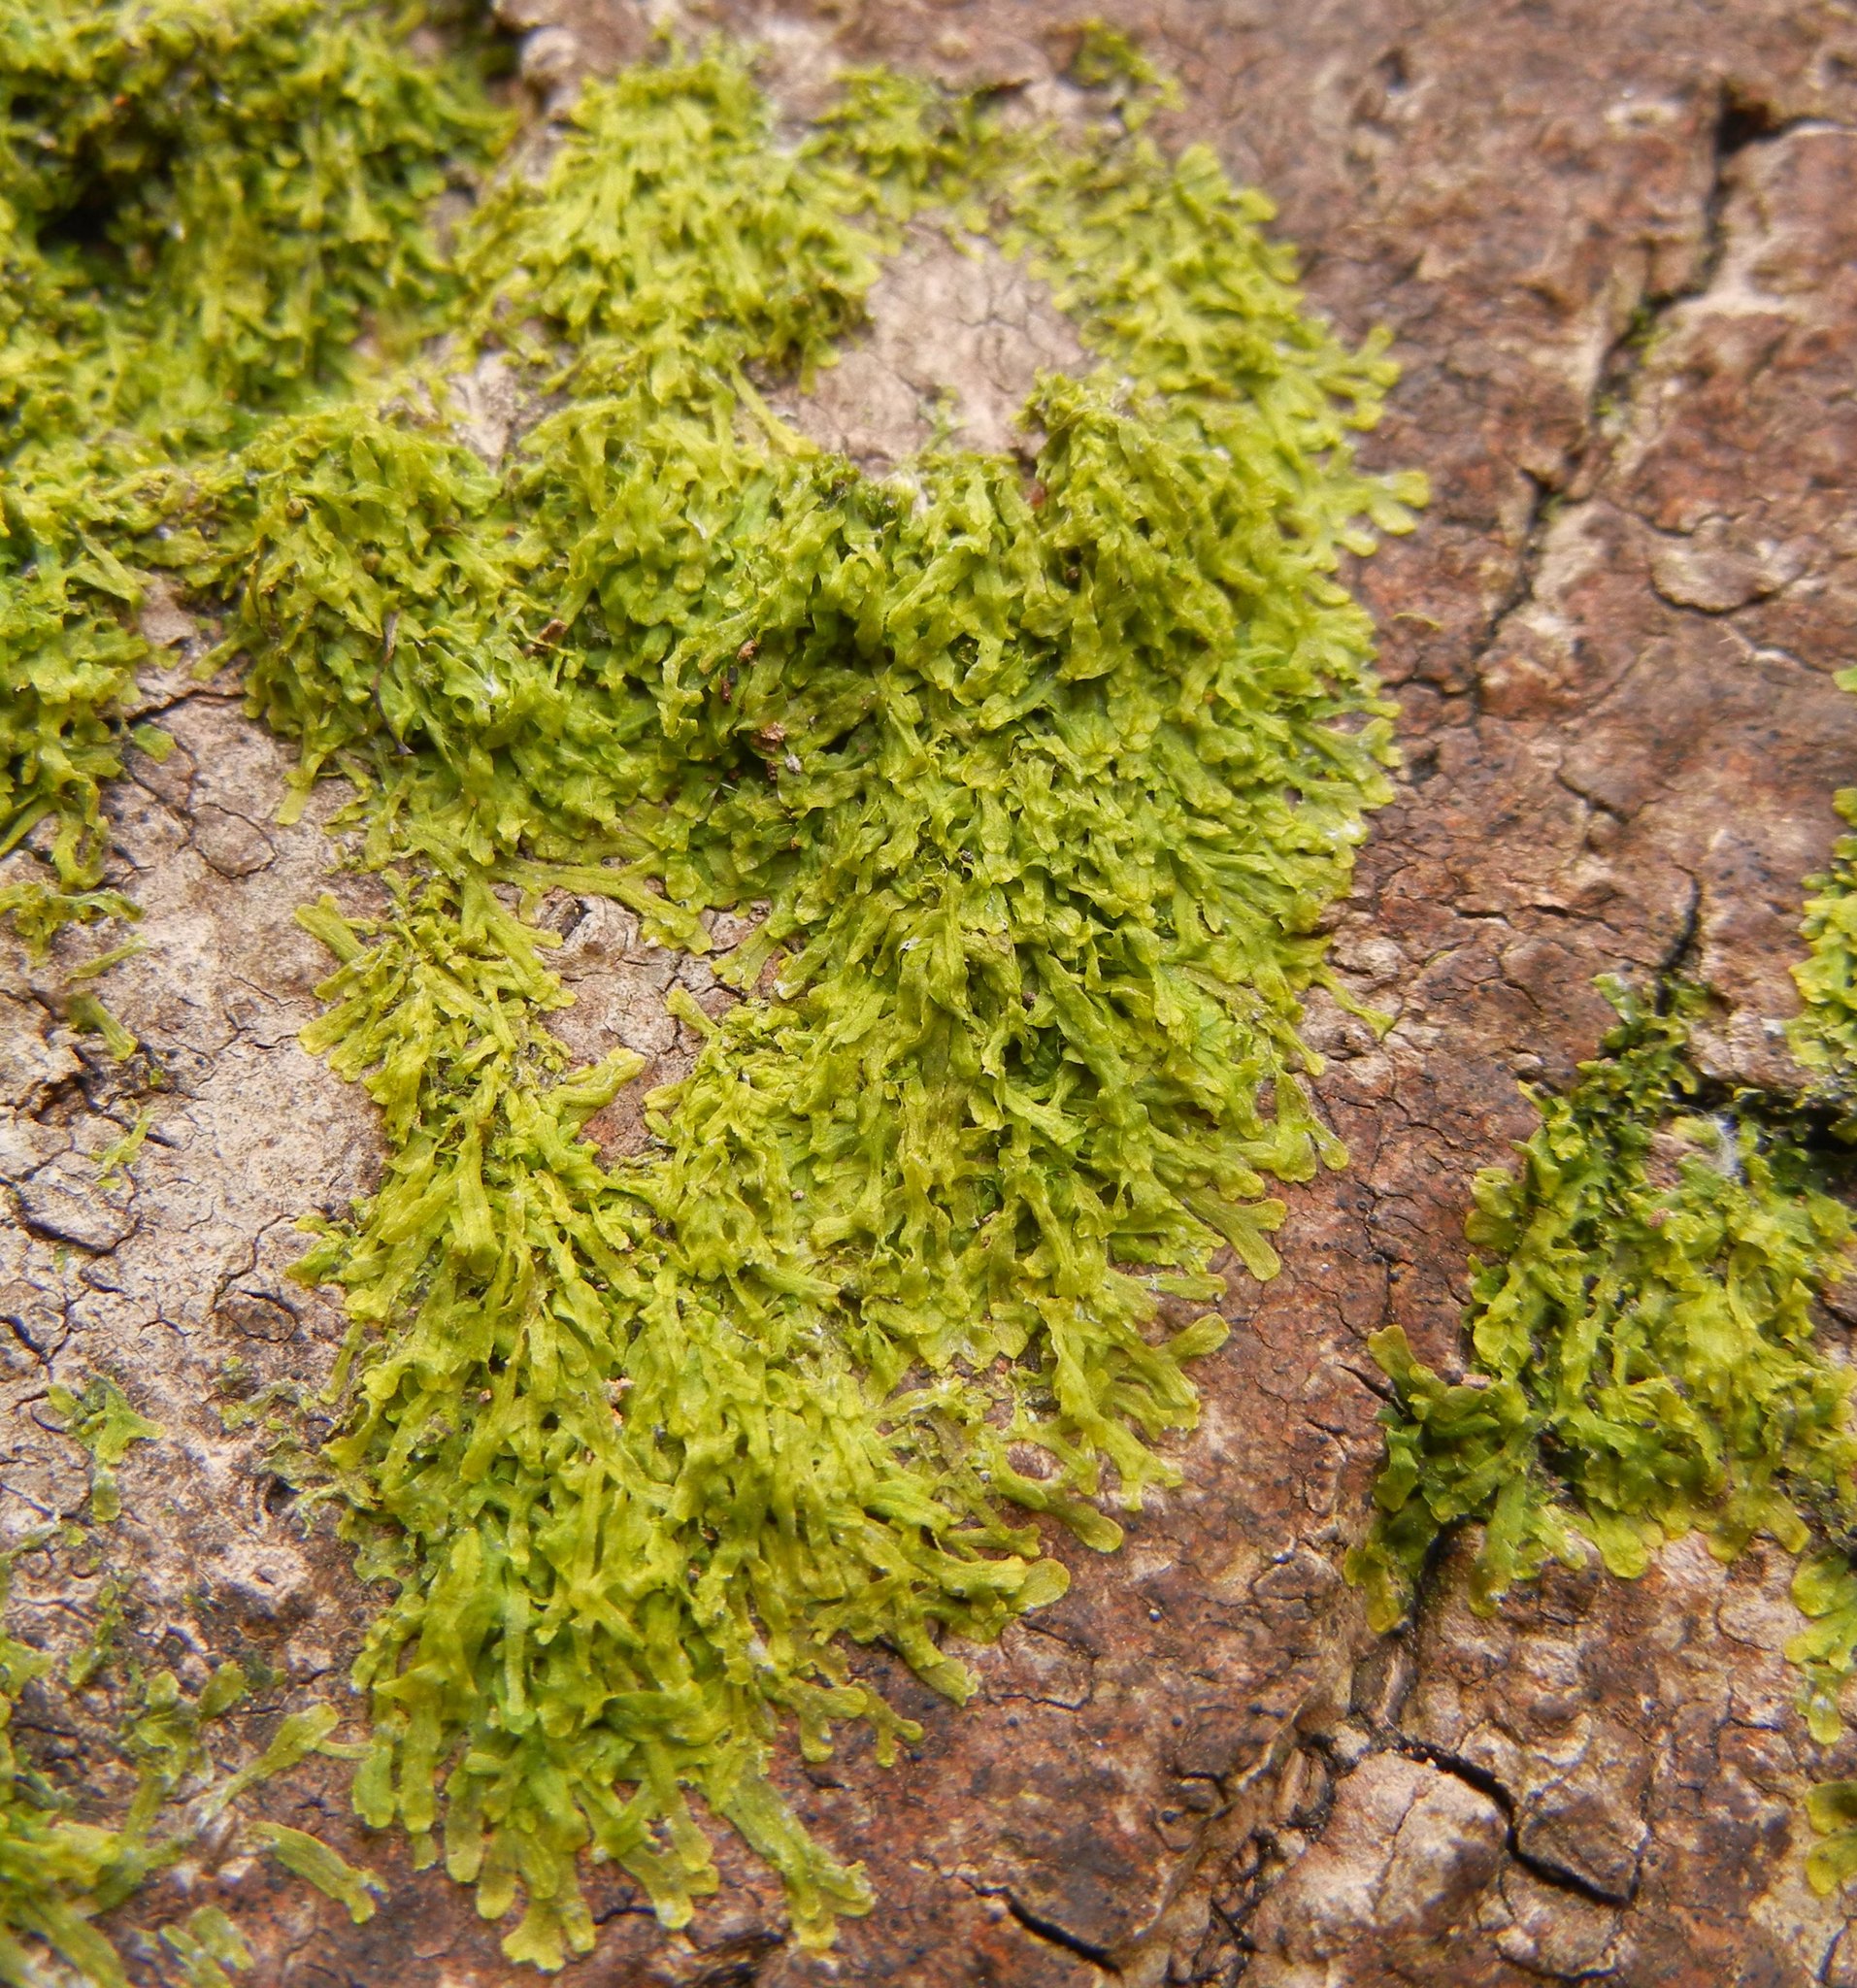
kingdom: Plantae
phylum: Marchantiophyta
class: Jungermanniopsida
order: Metzgeriales
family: Metzgeriaceae
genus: Metzgeria
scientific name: Metzgeria furcata
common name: Forked veilwort
